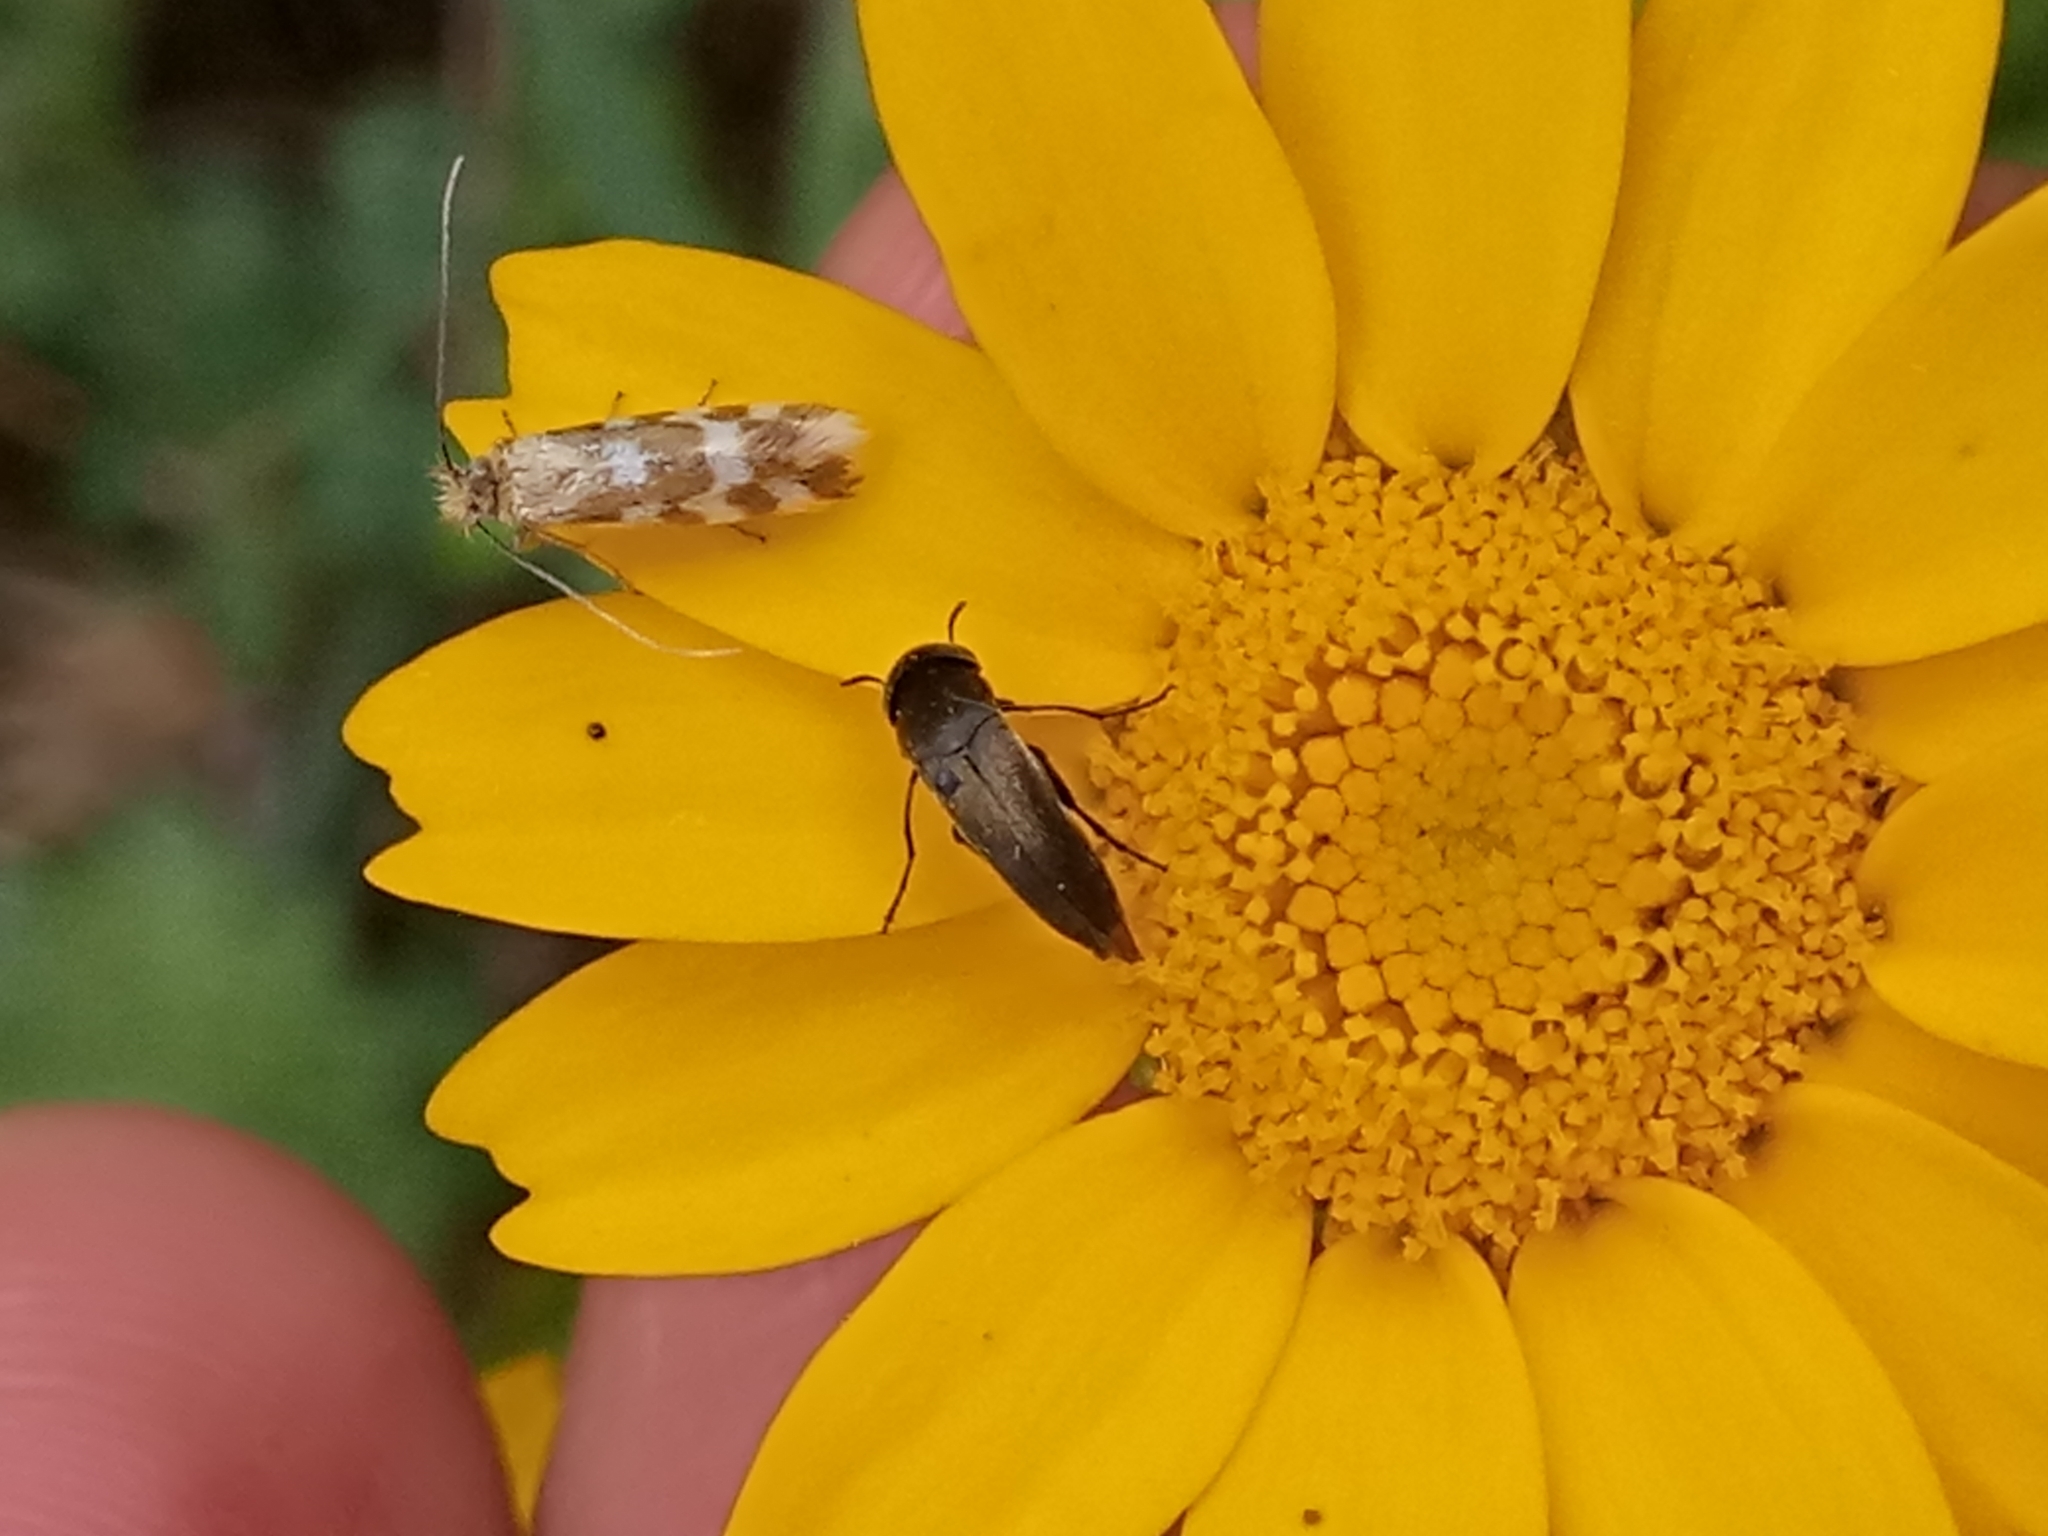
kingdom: Animalia
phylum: Arthropoda
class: Insecta
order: Lepidoptera
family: Adelidae
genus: Trichofrons
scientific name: Trichofrons pantherella
